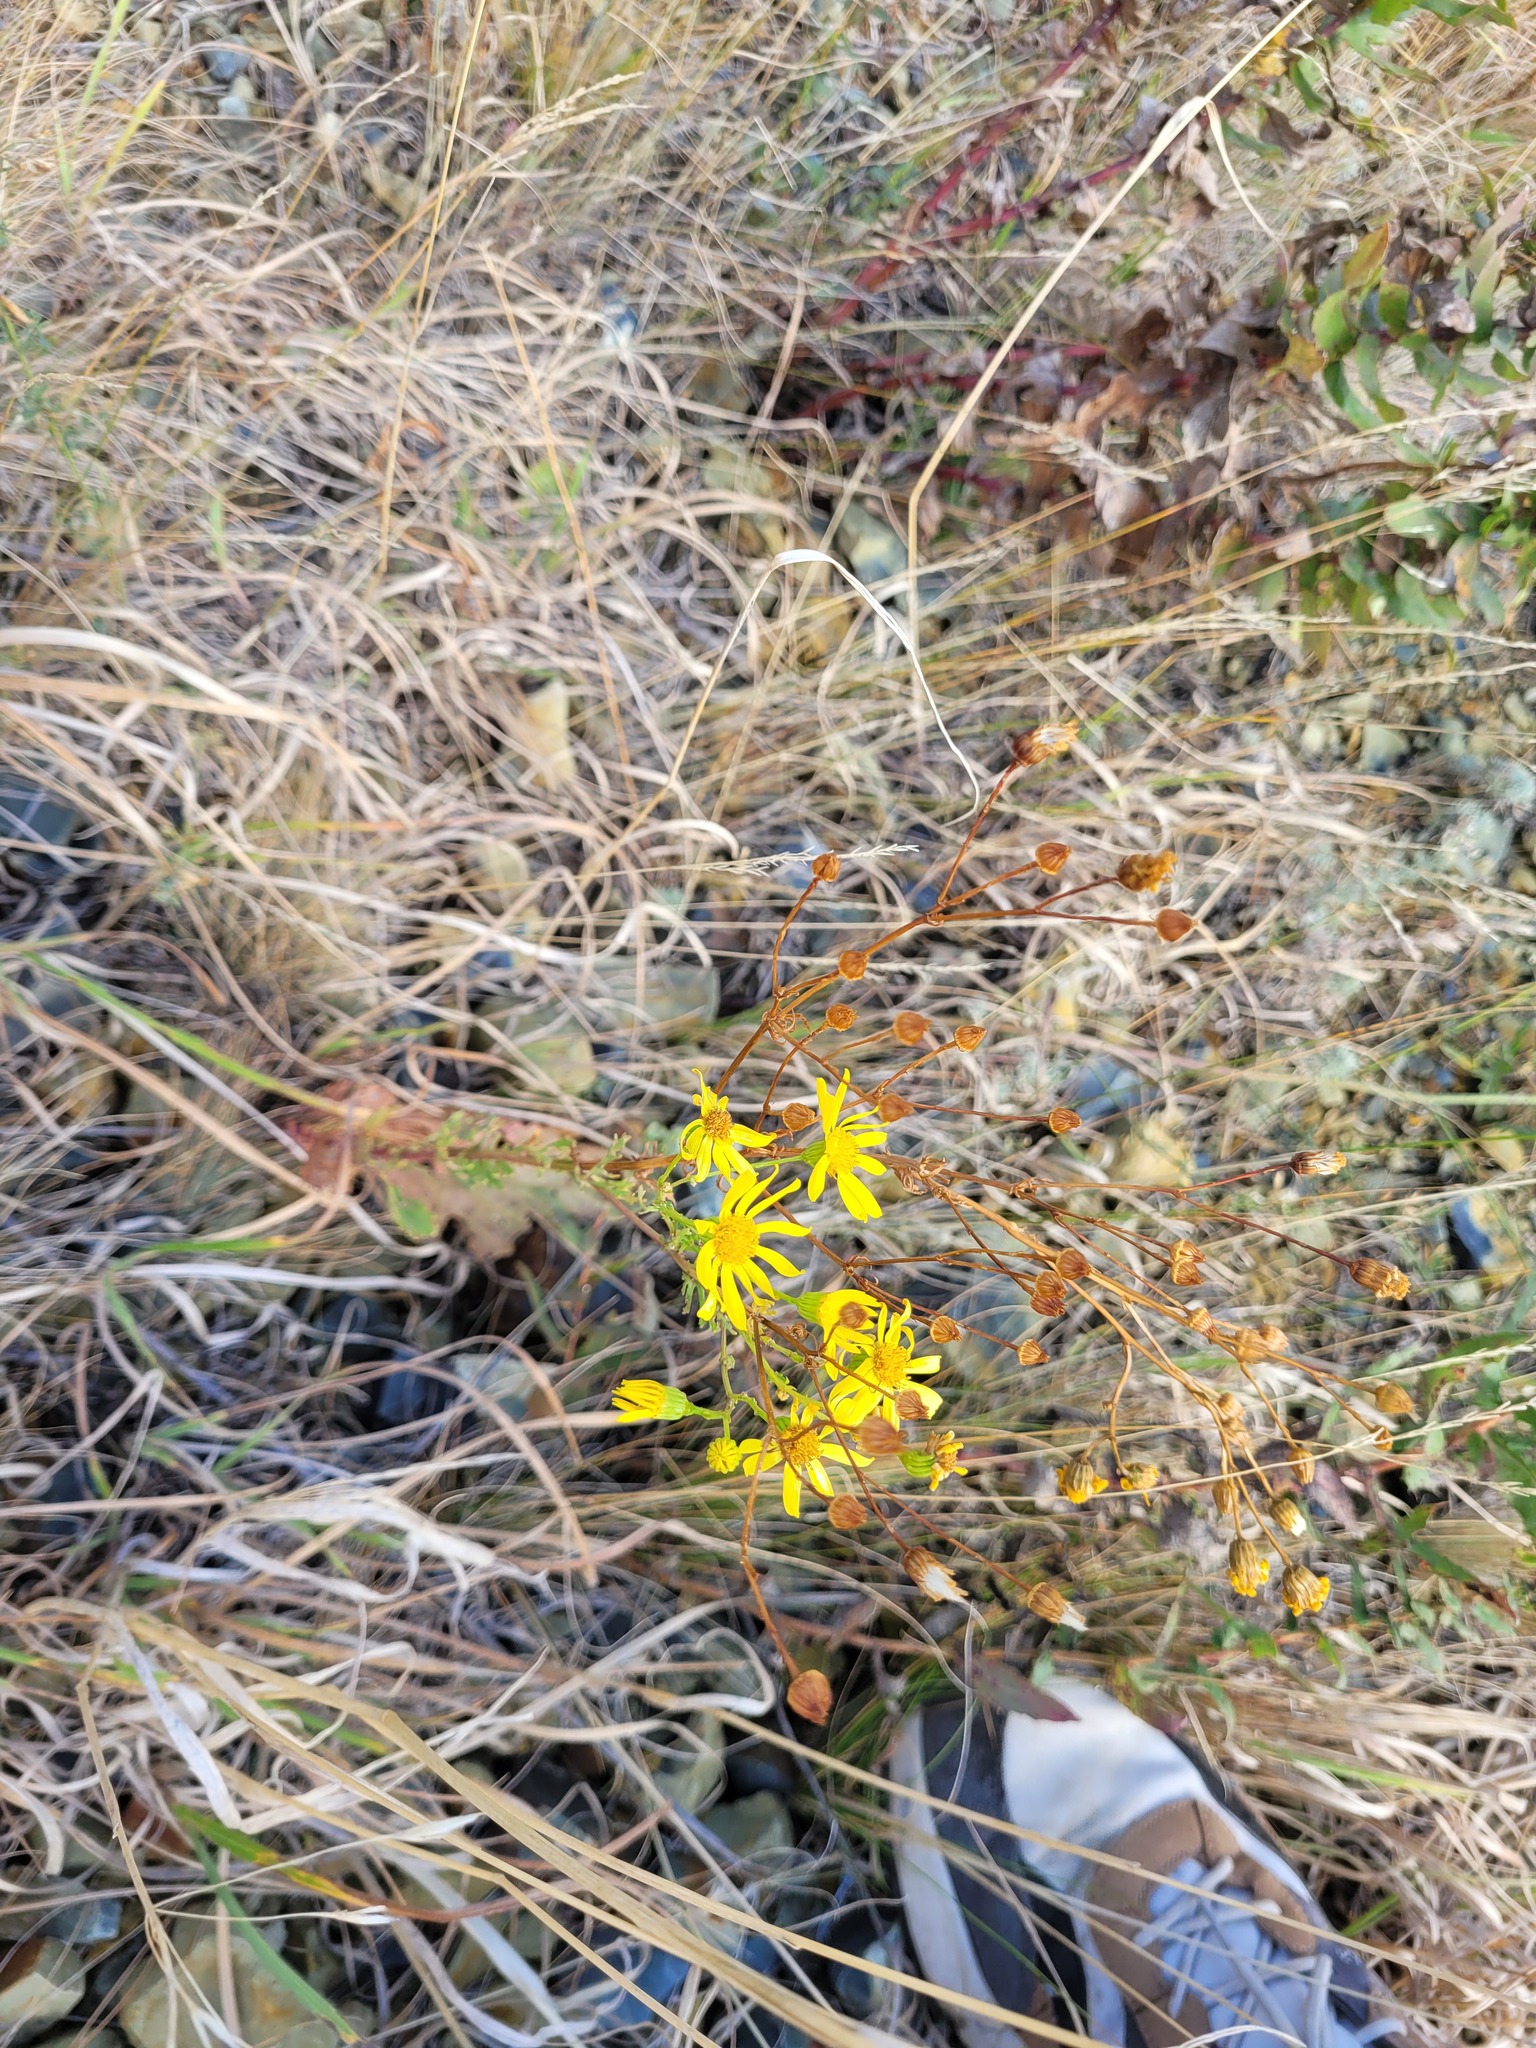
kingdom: Plantae
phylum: Tracheophyta
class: Magnoliopsida
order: Asterales
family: Asteraceae
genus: Jacobaea
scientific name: Jacobaea vulgaris
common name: Stinking willie
